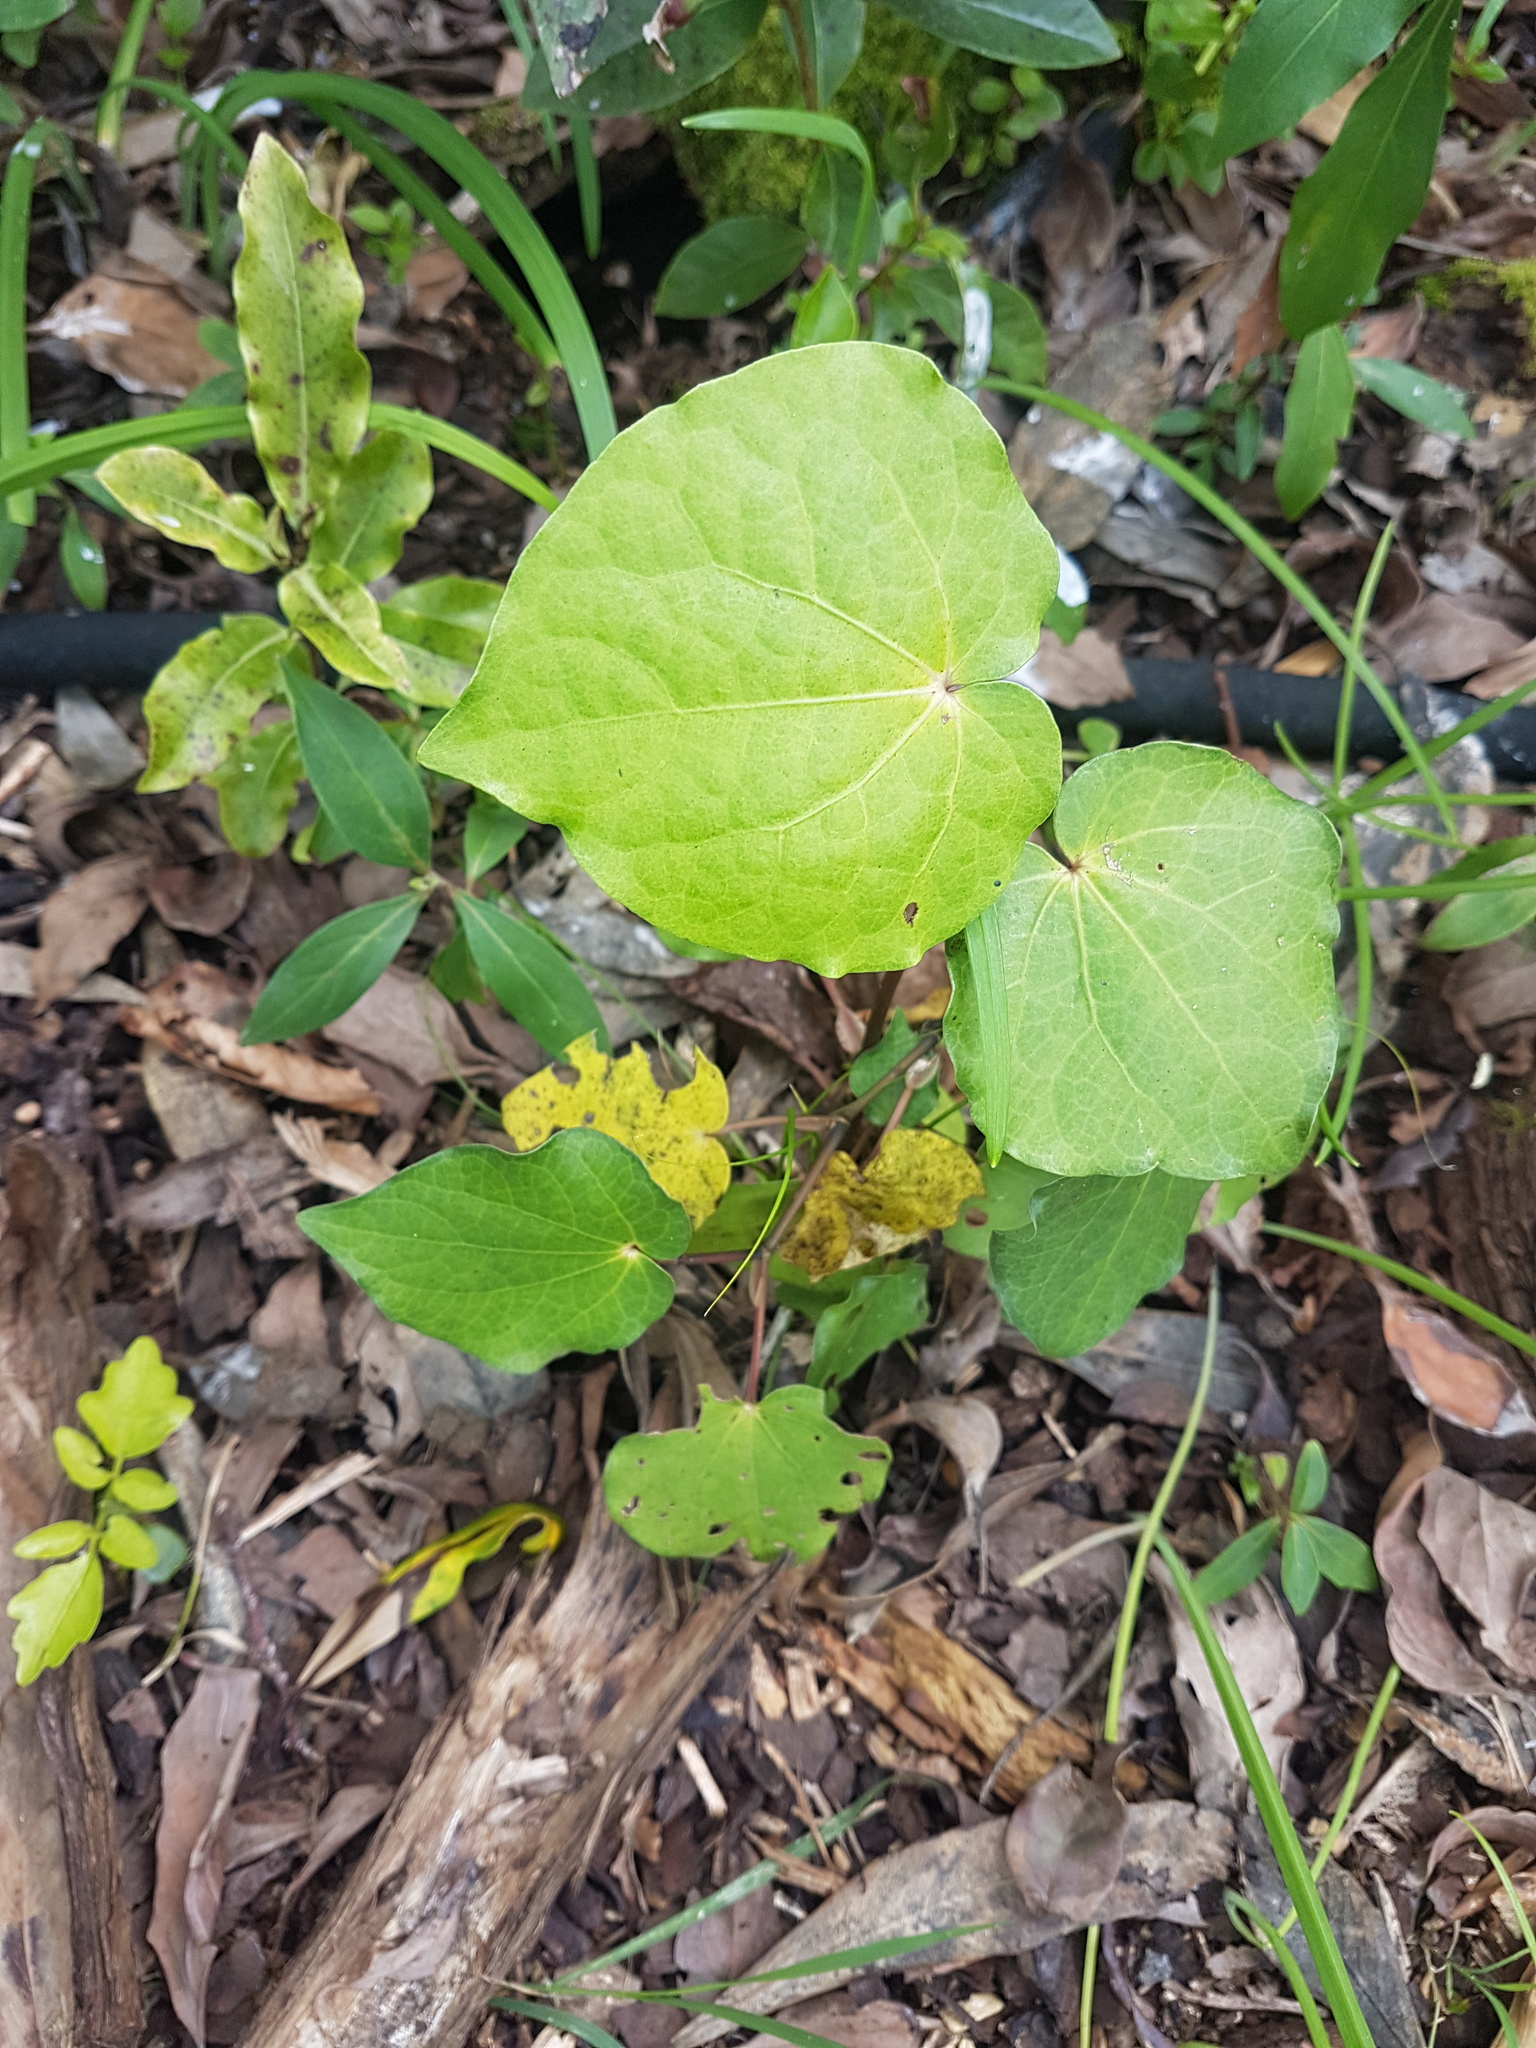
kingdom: Plantae
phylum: Tracheophyta
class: Magnoliopsida
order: Piperales
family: Piperaceae
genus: Macropiper
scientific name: Macropiper excelsum
